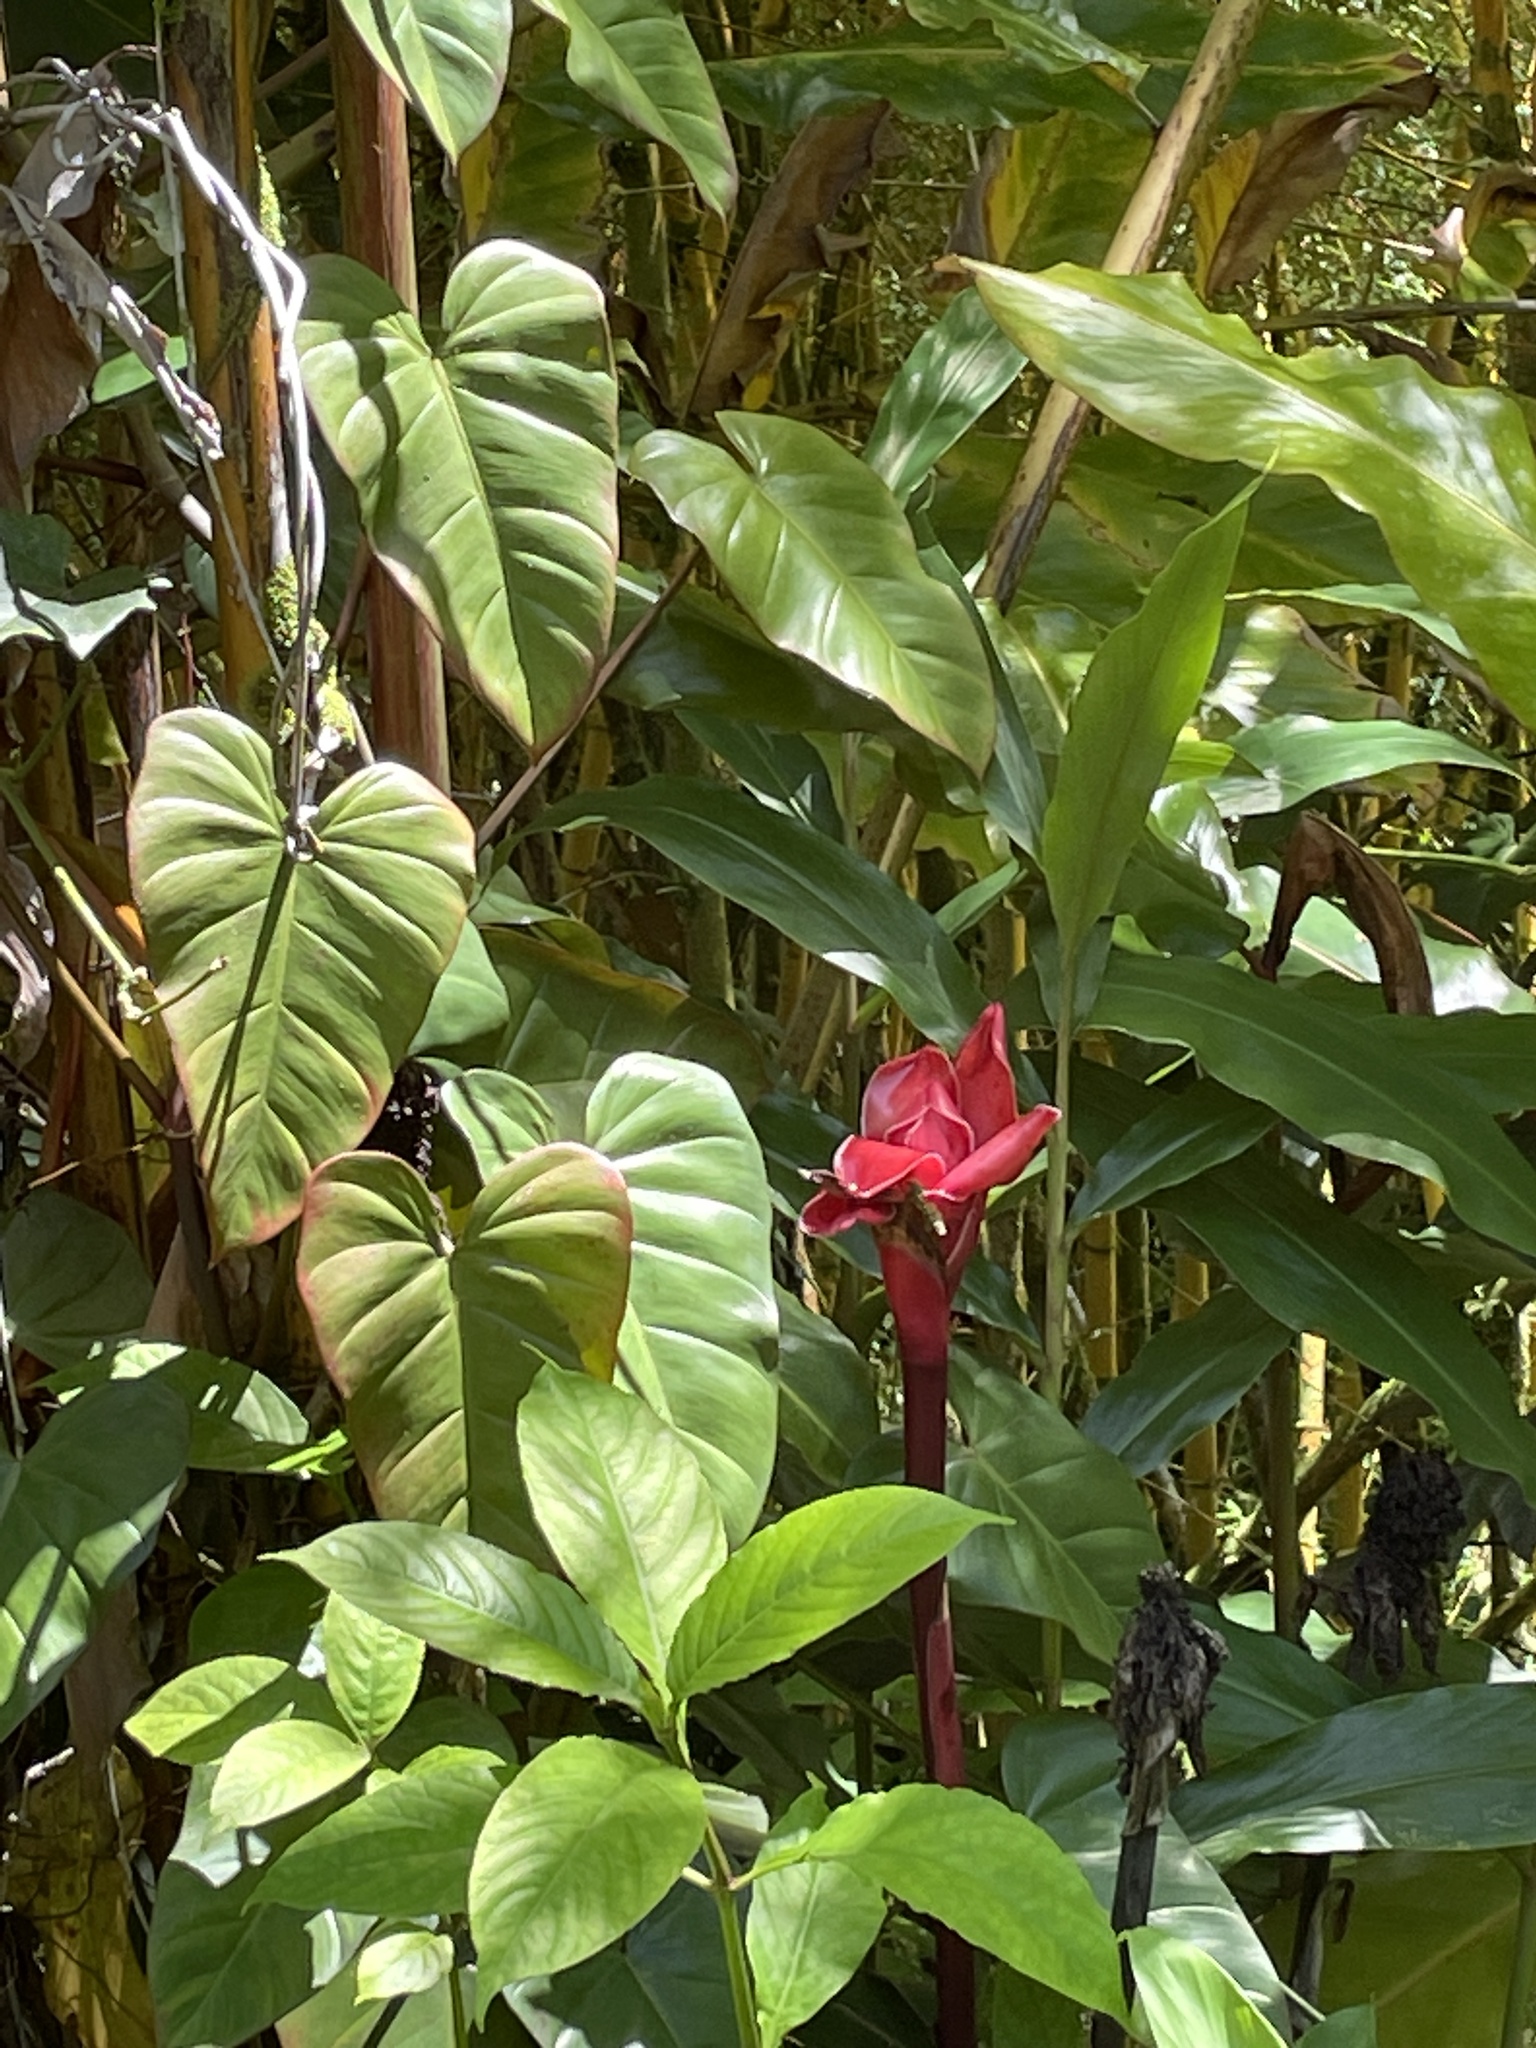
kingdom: Plantae
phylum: Tracheophyta
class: Liliopsida
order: Zingiberales
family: Zingiberaceae
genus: Etlingera
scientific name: Etlingera elatior
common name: Philippine waxflower
